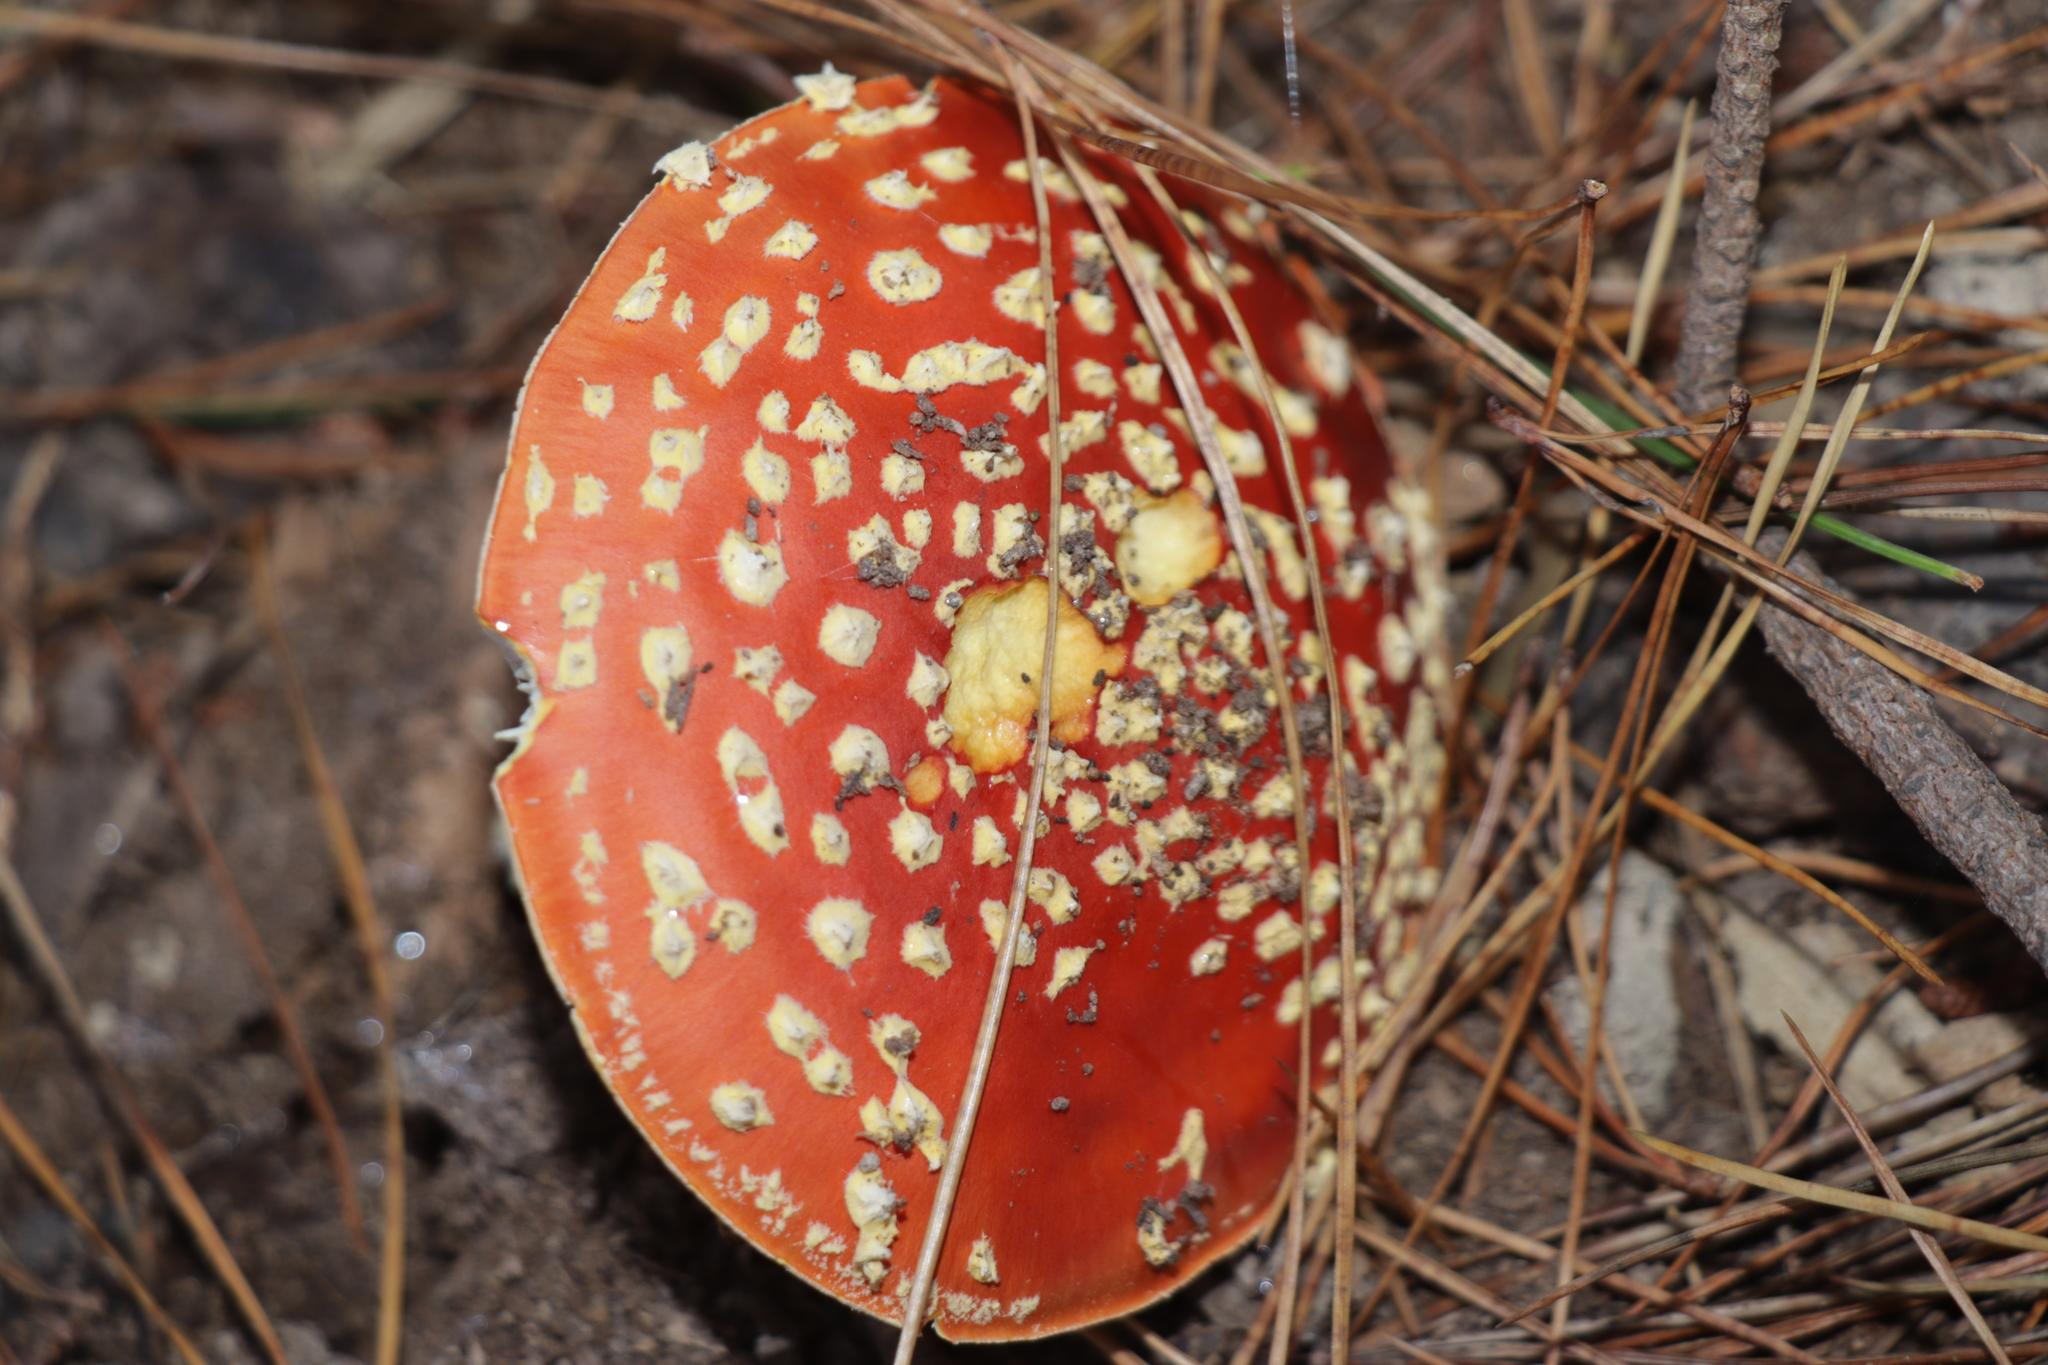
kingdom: Fungi
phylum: Basidiomycota
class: Agaricomycetes
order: Agaricales
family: Amanitaceae
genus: Amanita
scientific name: Amanita muscaria
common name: Fly agaric
